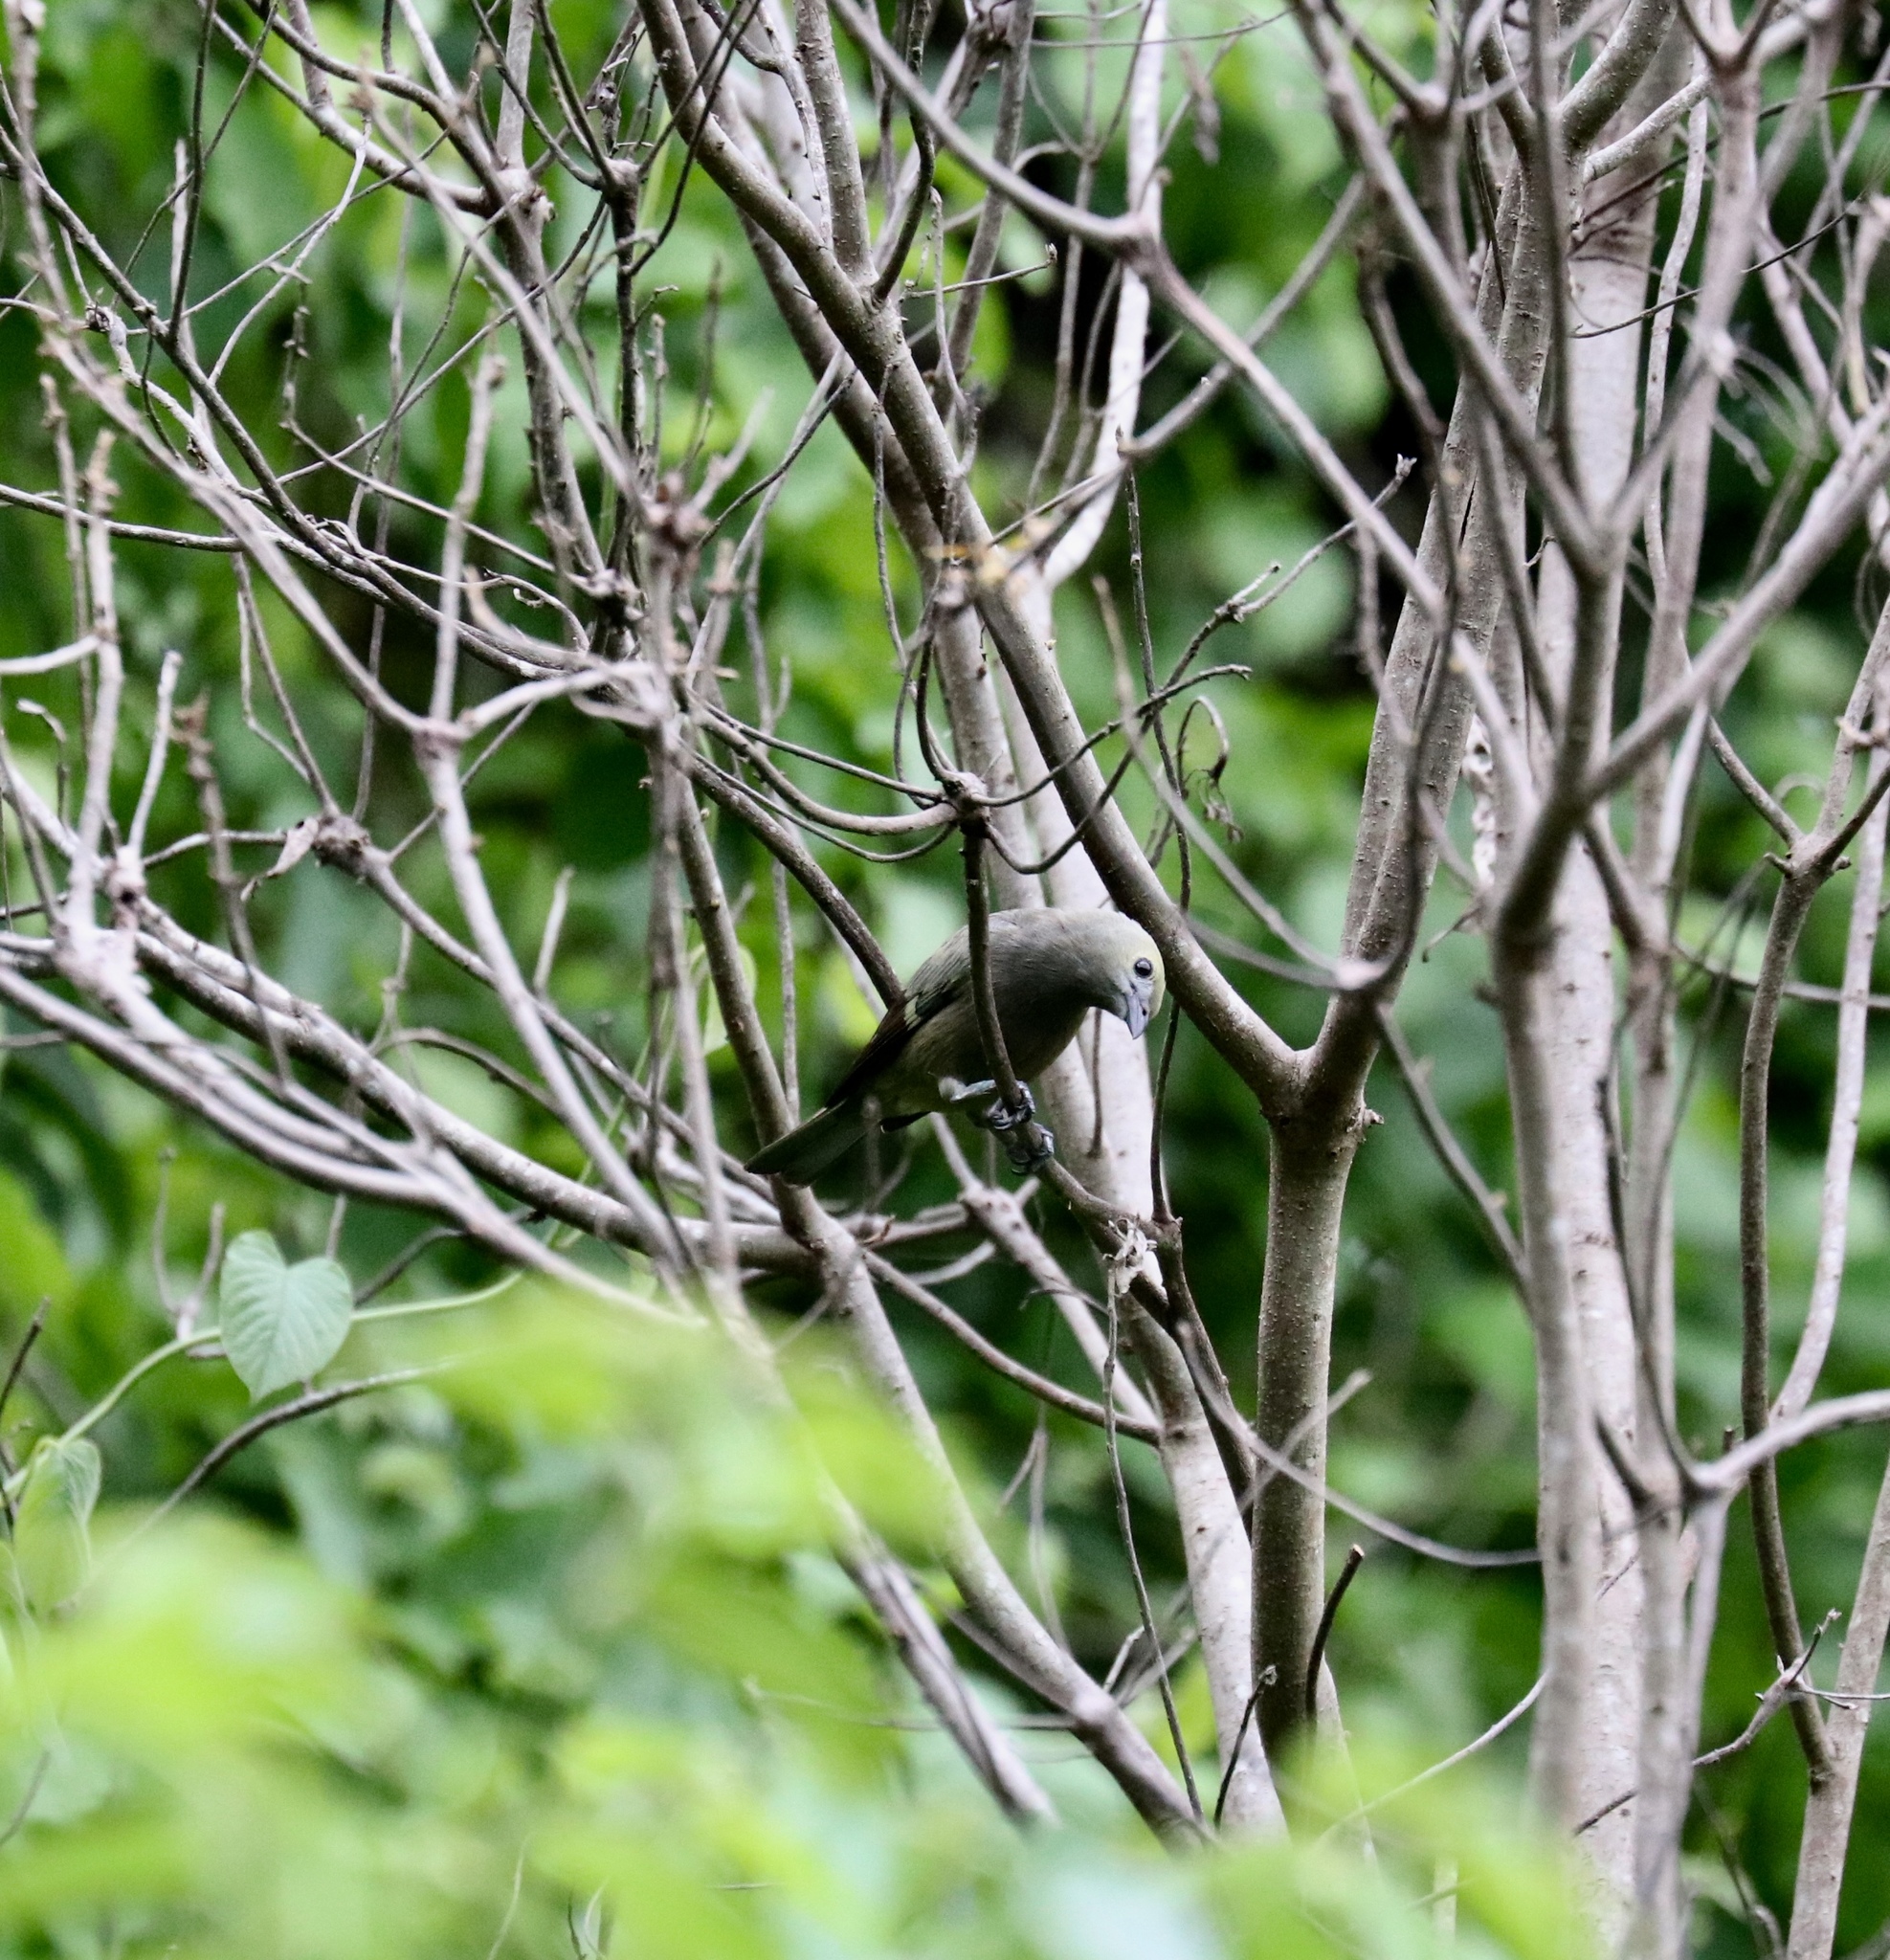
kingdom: Animalia
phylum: Chordata
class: Aves
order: Passeriformes
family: Thraupidae
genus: Thraupis
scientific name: Thraupis palmarum
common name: Palm tanager
